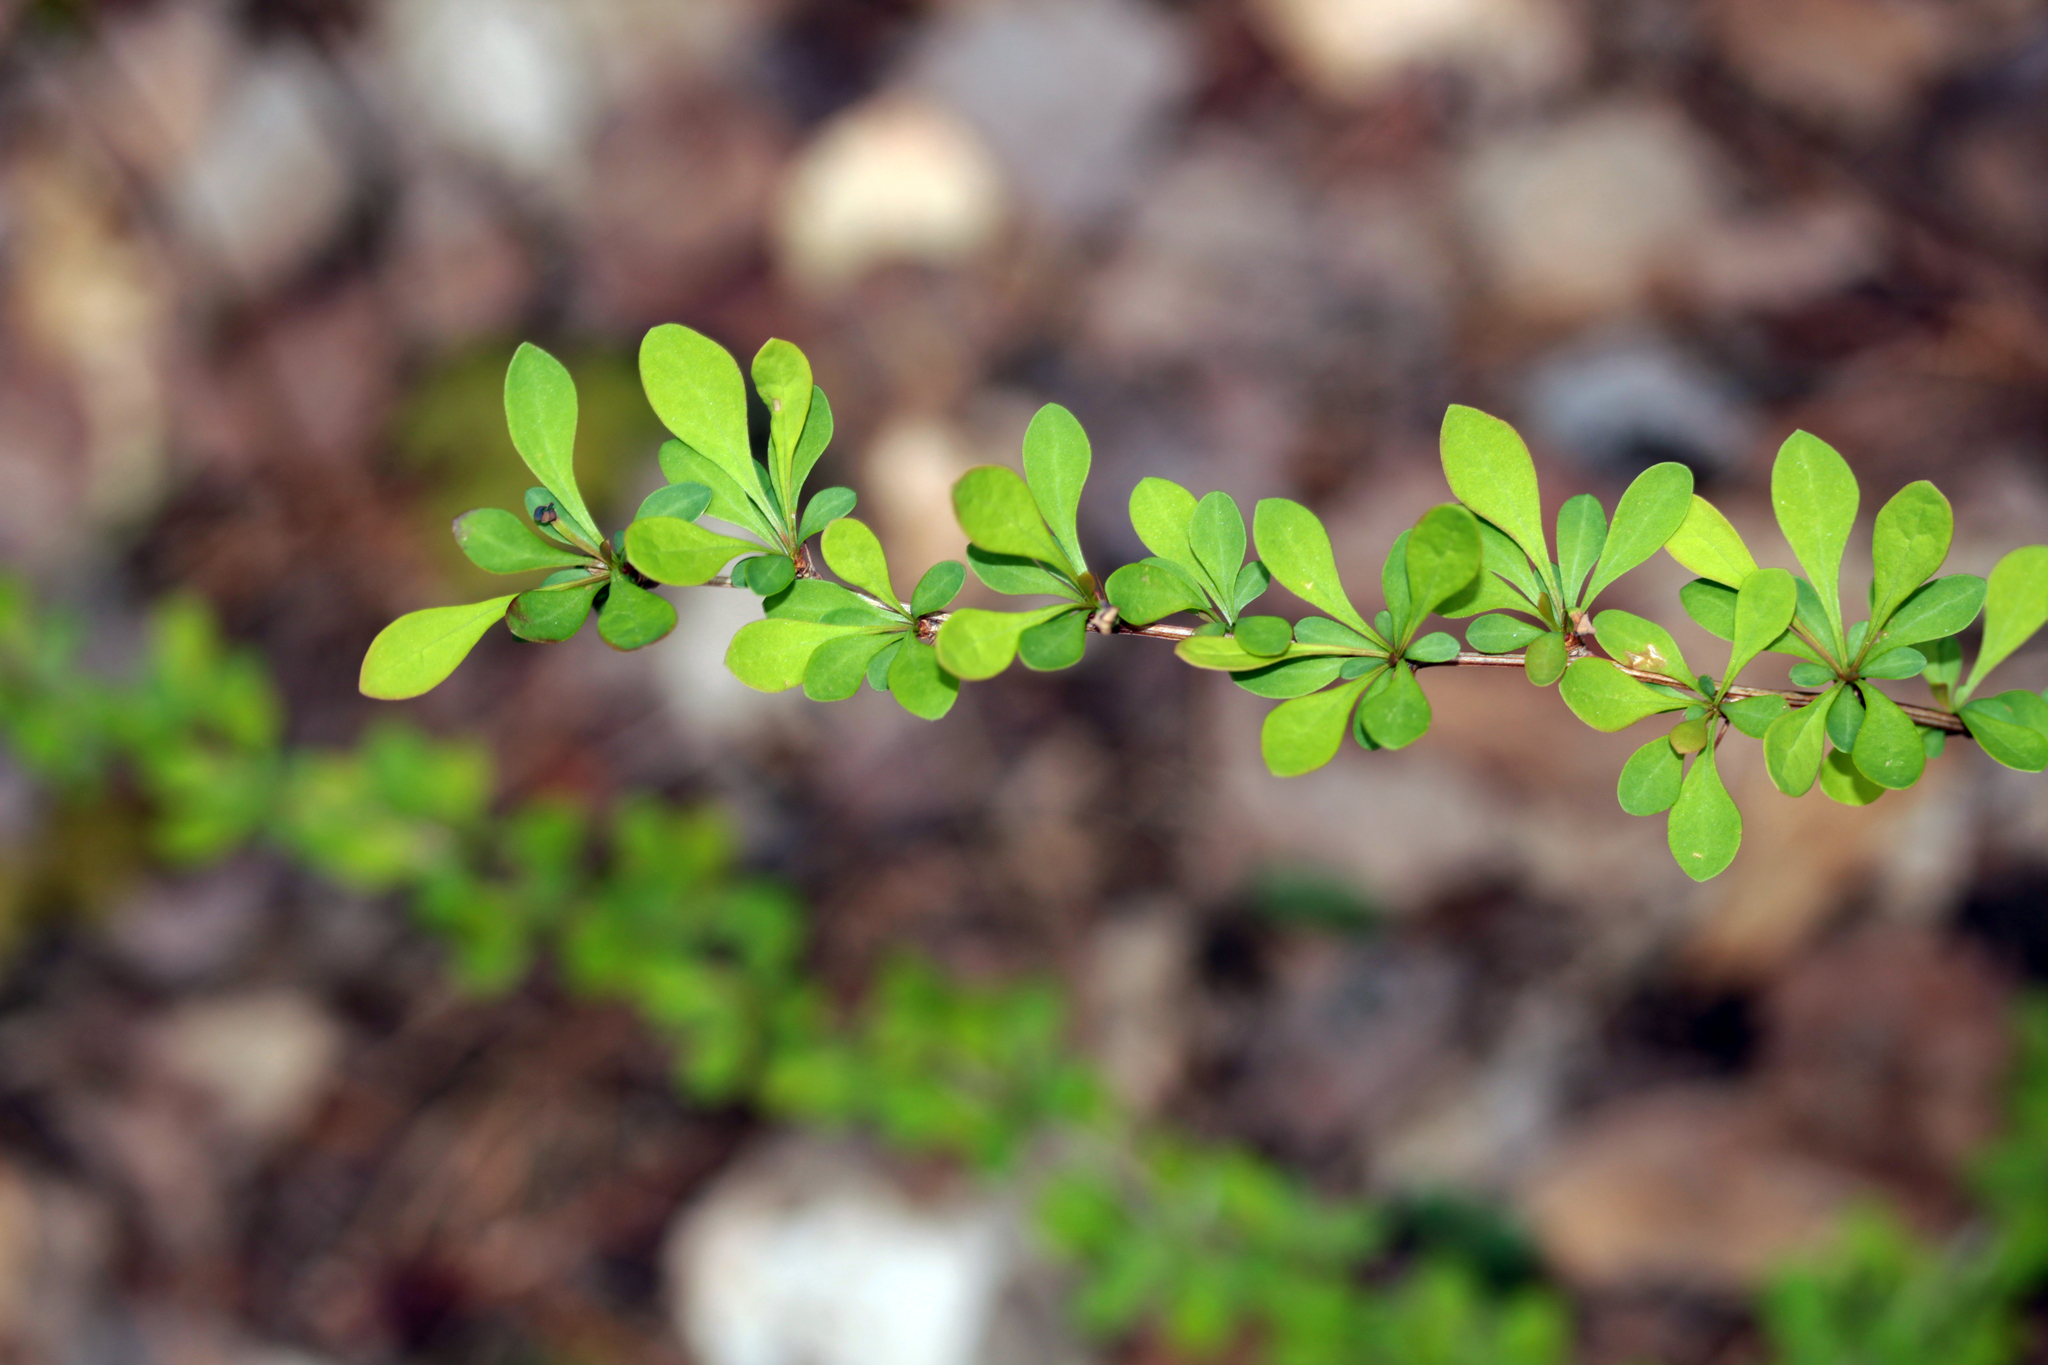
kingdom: Plantae
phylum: Tracheophyta
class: Magnoliopsida
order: Ranunculales
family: Berberidaceae
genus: Berberis
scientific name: Berberis thunbergii
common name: Japanese barberry
